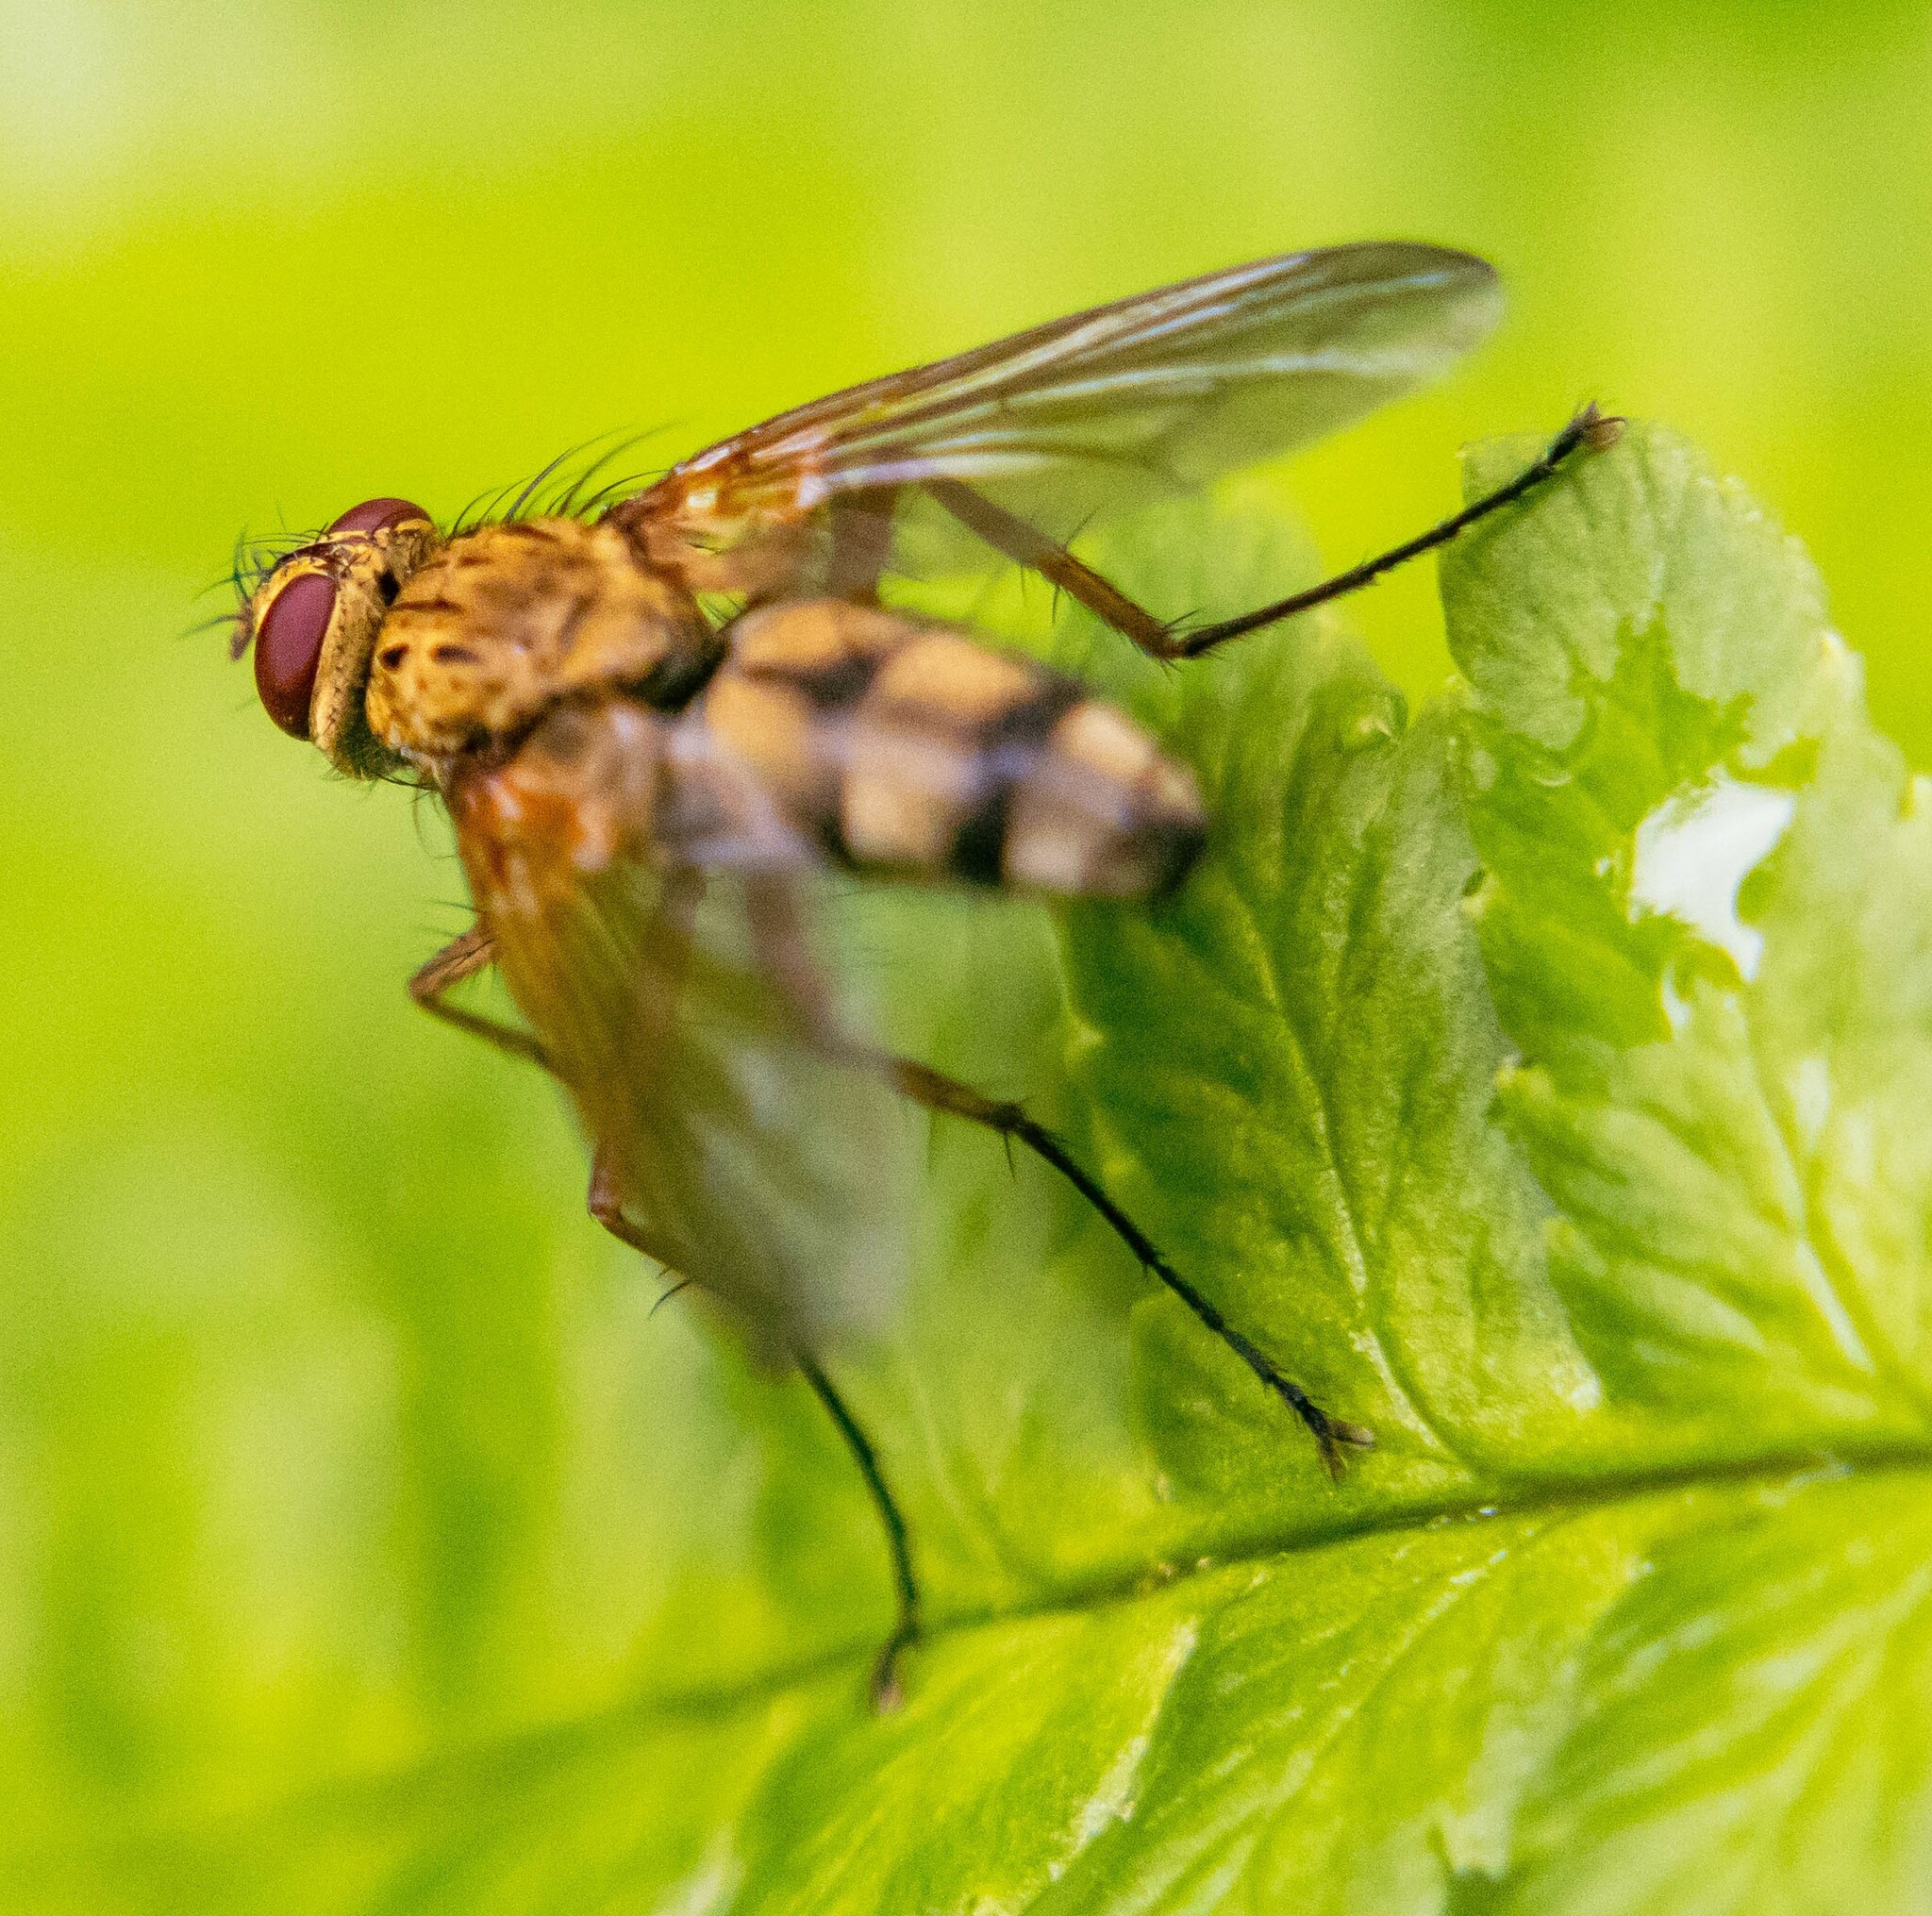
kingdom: Animalia
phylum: Arthropoda
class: Insecta
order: Diptera
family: Tachinidae
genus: Dexiosoma
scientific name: Dexiosoma caninum
